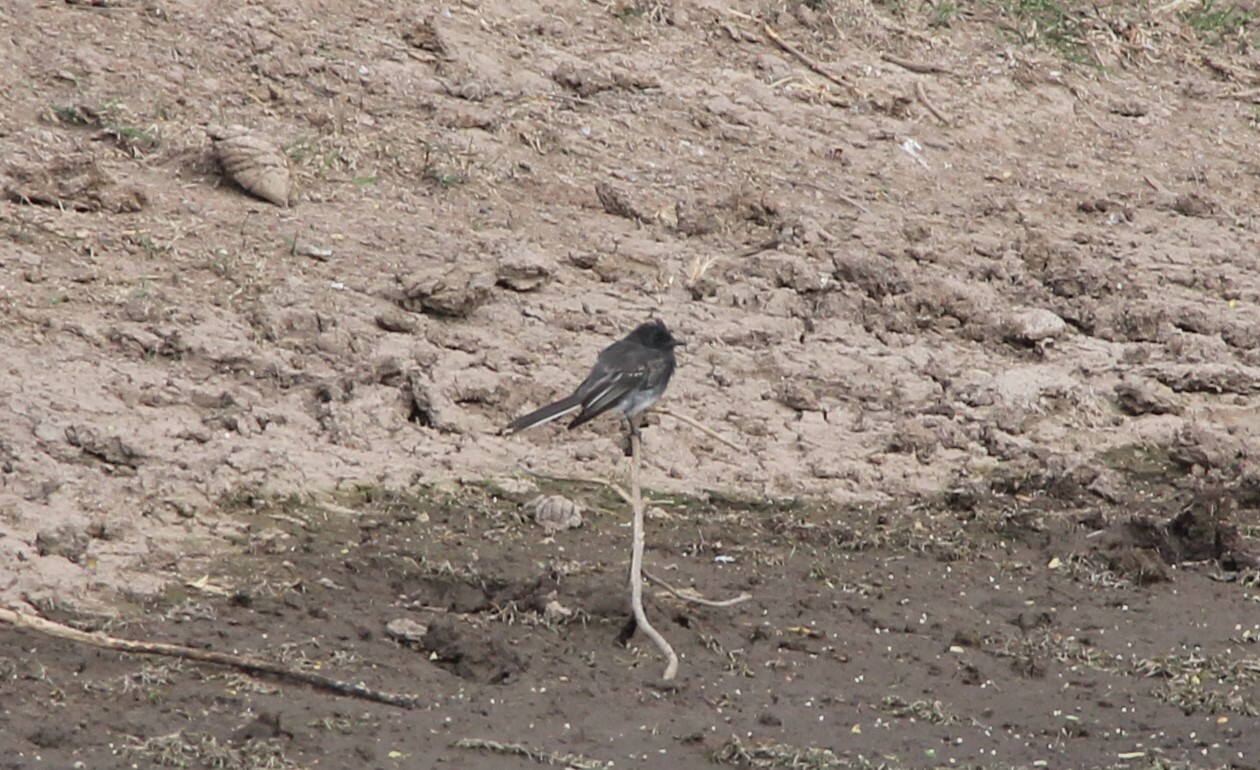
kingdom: Animalia
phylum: Chordata
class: Aves
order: Passeriformes
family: Tyrannidae
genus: Sayornis
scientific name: Sayornis nigricans
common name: Black phoebe
